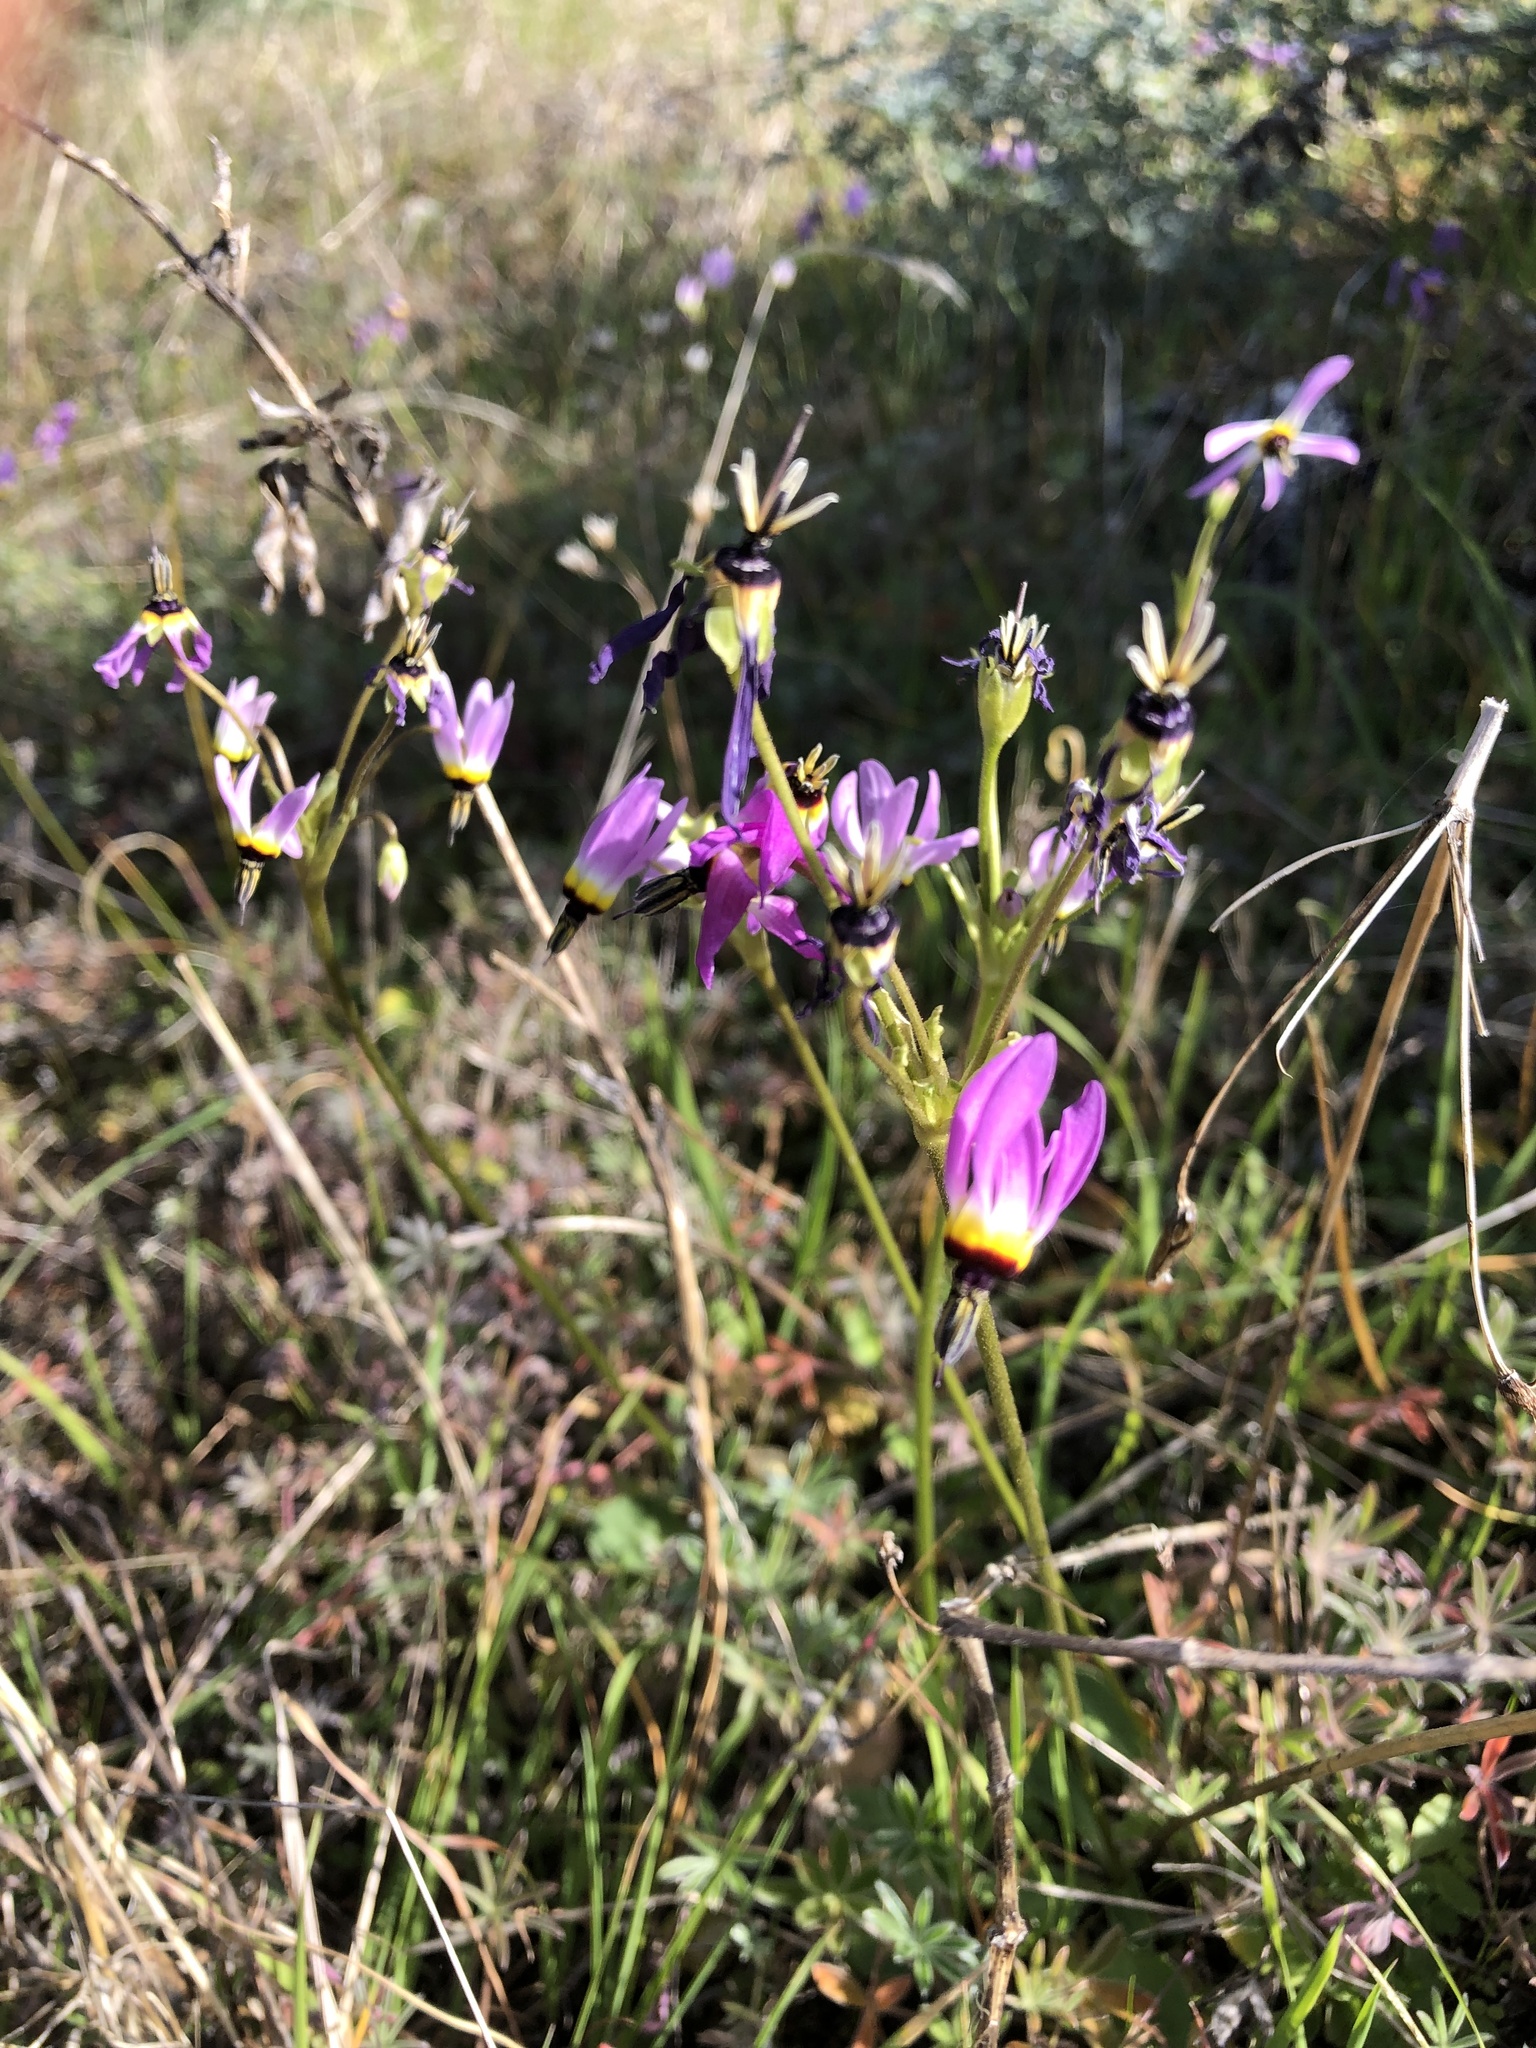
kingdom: Plantae
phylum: Tracheophyta
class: Magnoliopsida
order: Ericales
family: Primulaceae
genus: Dodecatheon
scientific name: Dodecatheon clevelandii
